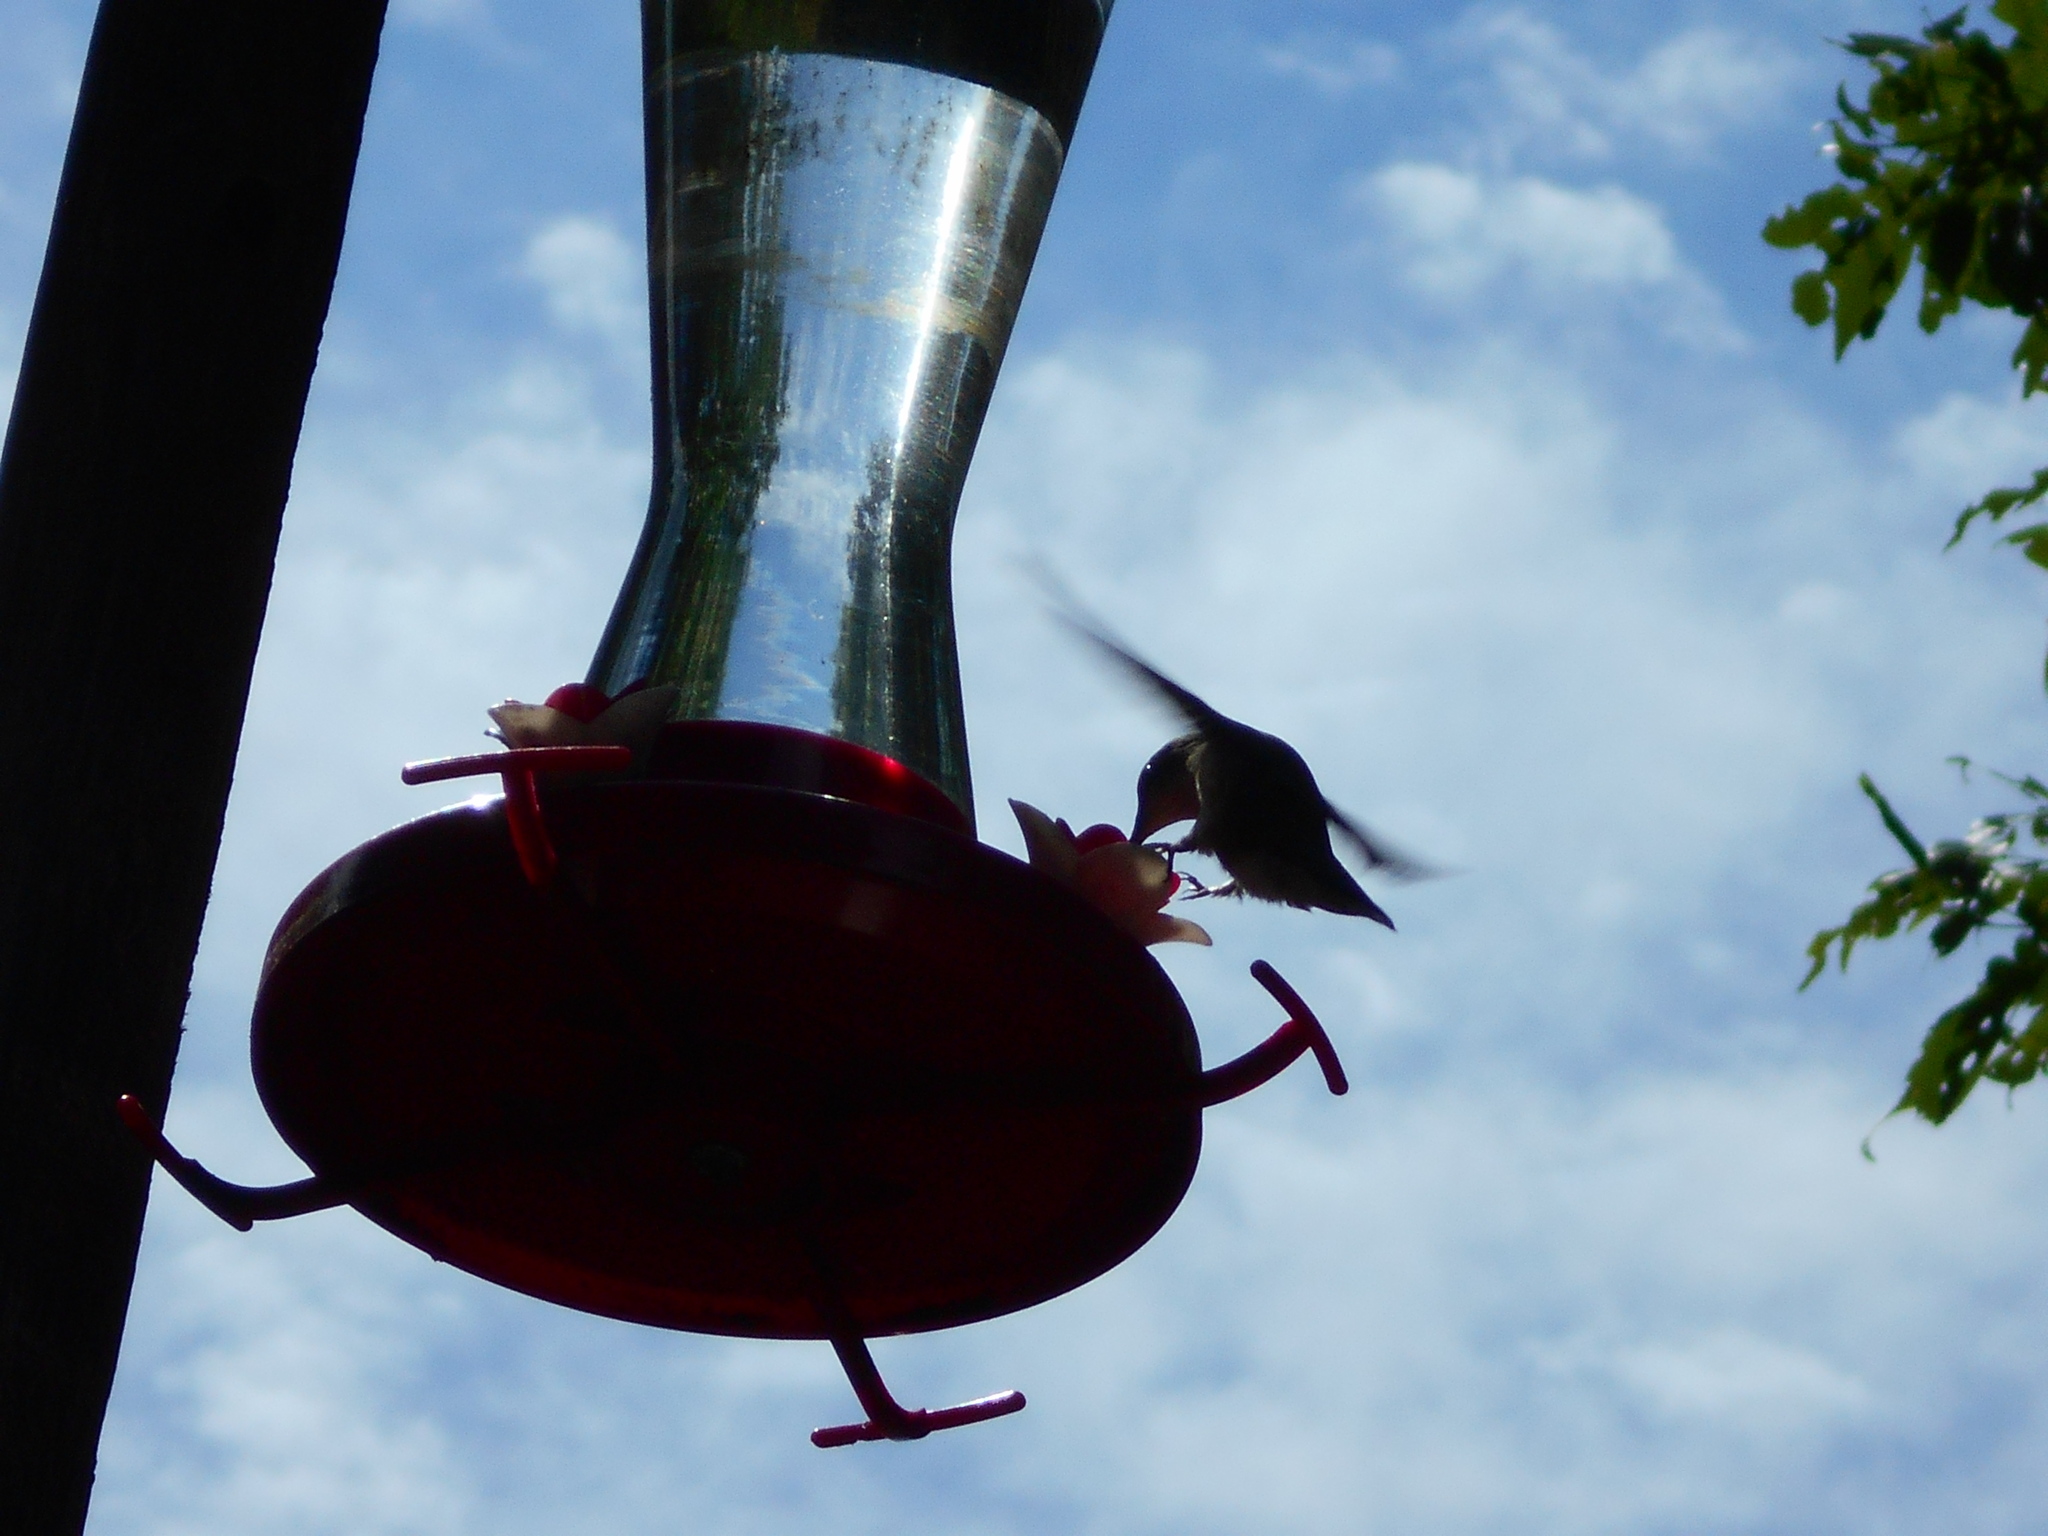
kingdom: Animalia
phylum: Chordata
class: Aves
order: Apodiformes
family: Trochilidae
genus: Archilochus
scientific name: Archilochus colubris
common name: Ruby-throated hummingbird
